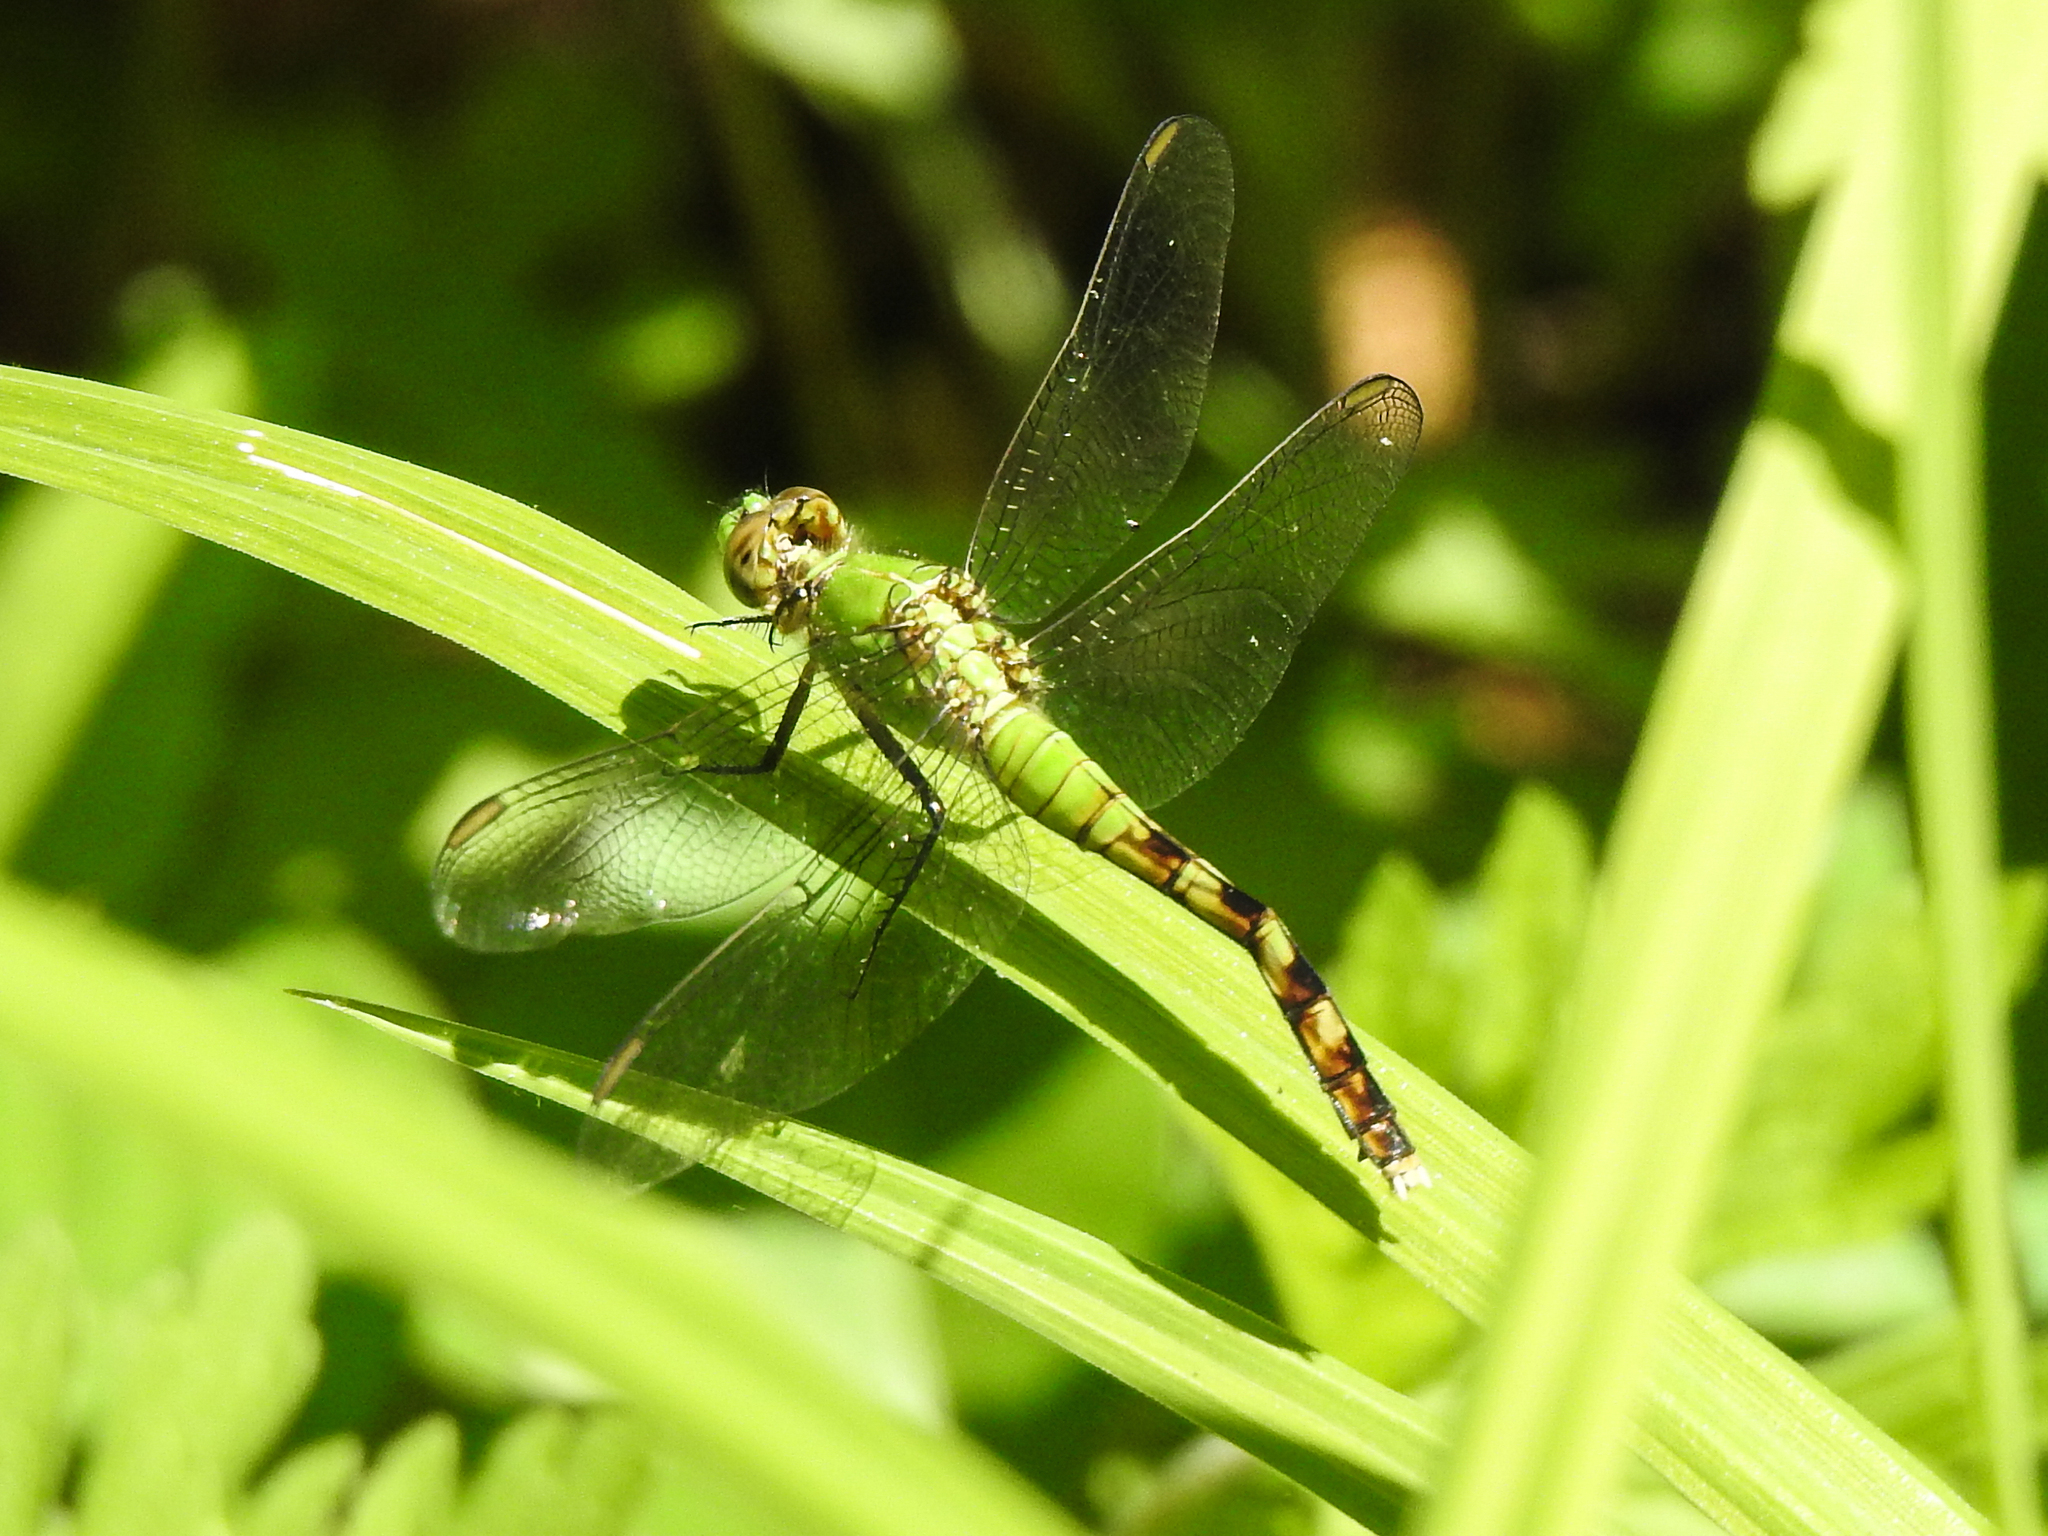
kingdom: Animalia
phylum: Arthropoda
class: Insecta
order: Odonata
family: Libellulidae
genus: Erythemis
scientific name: Erythemis simplicicollis
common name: Eastern pondhawk
